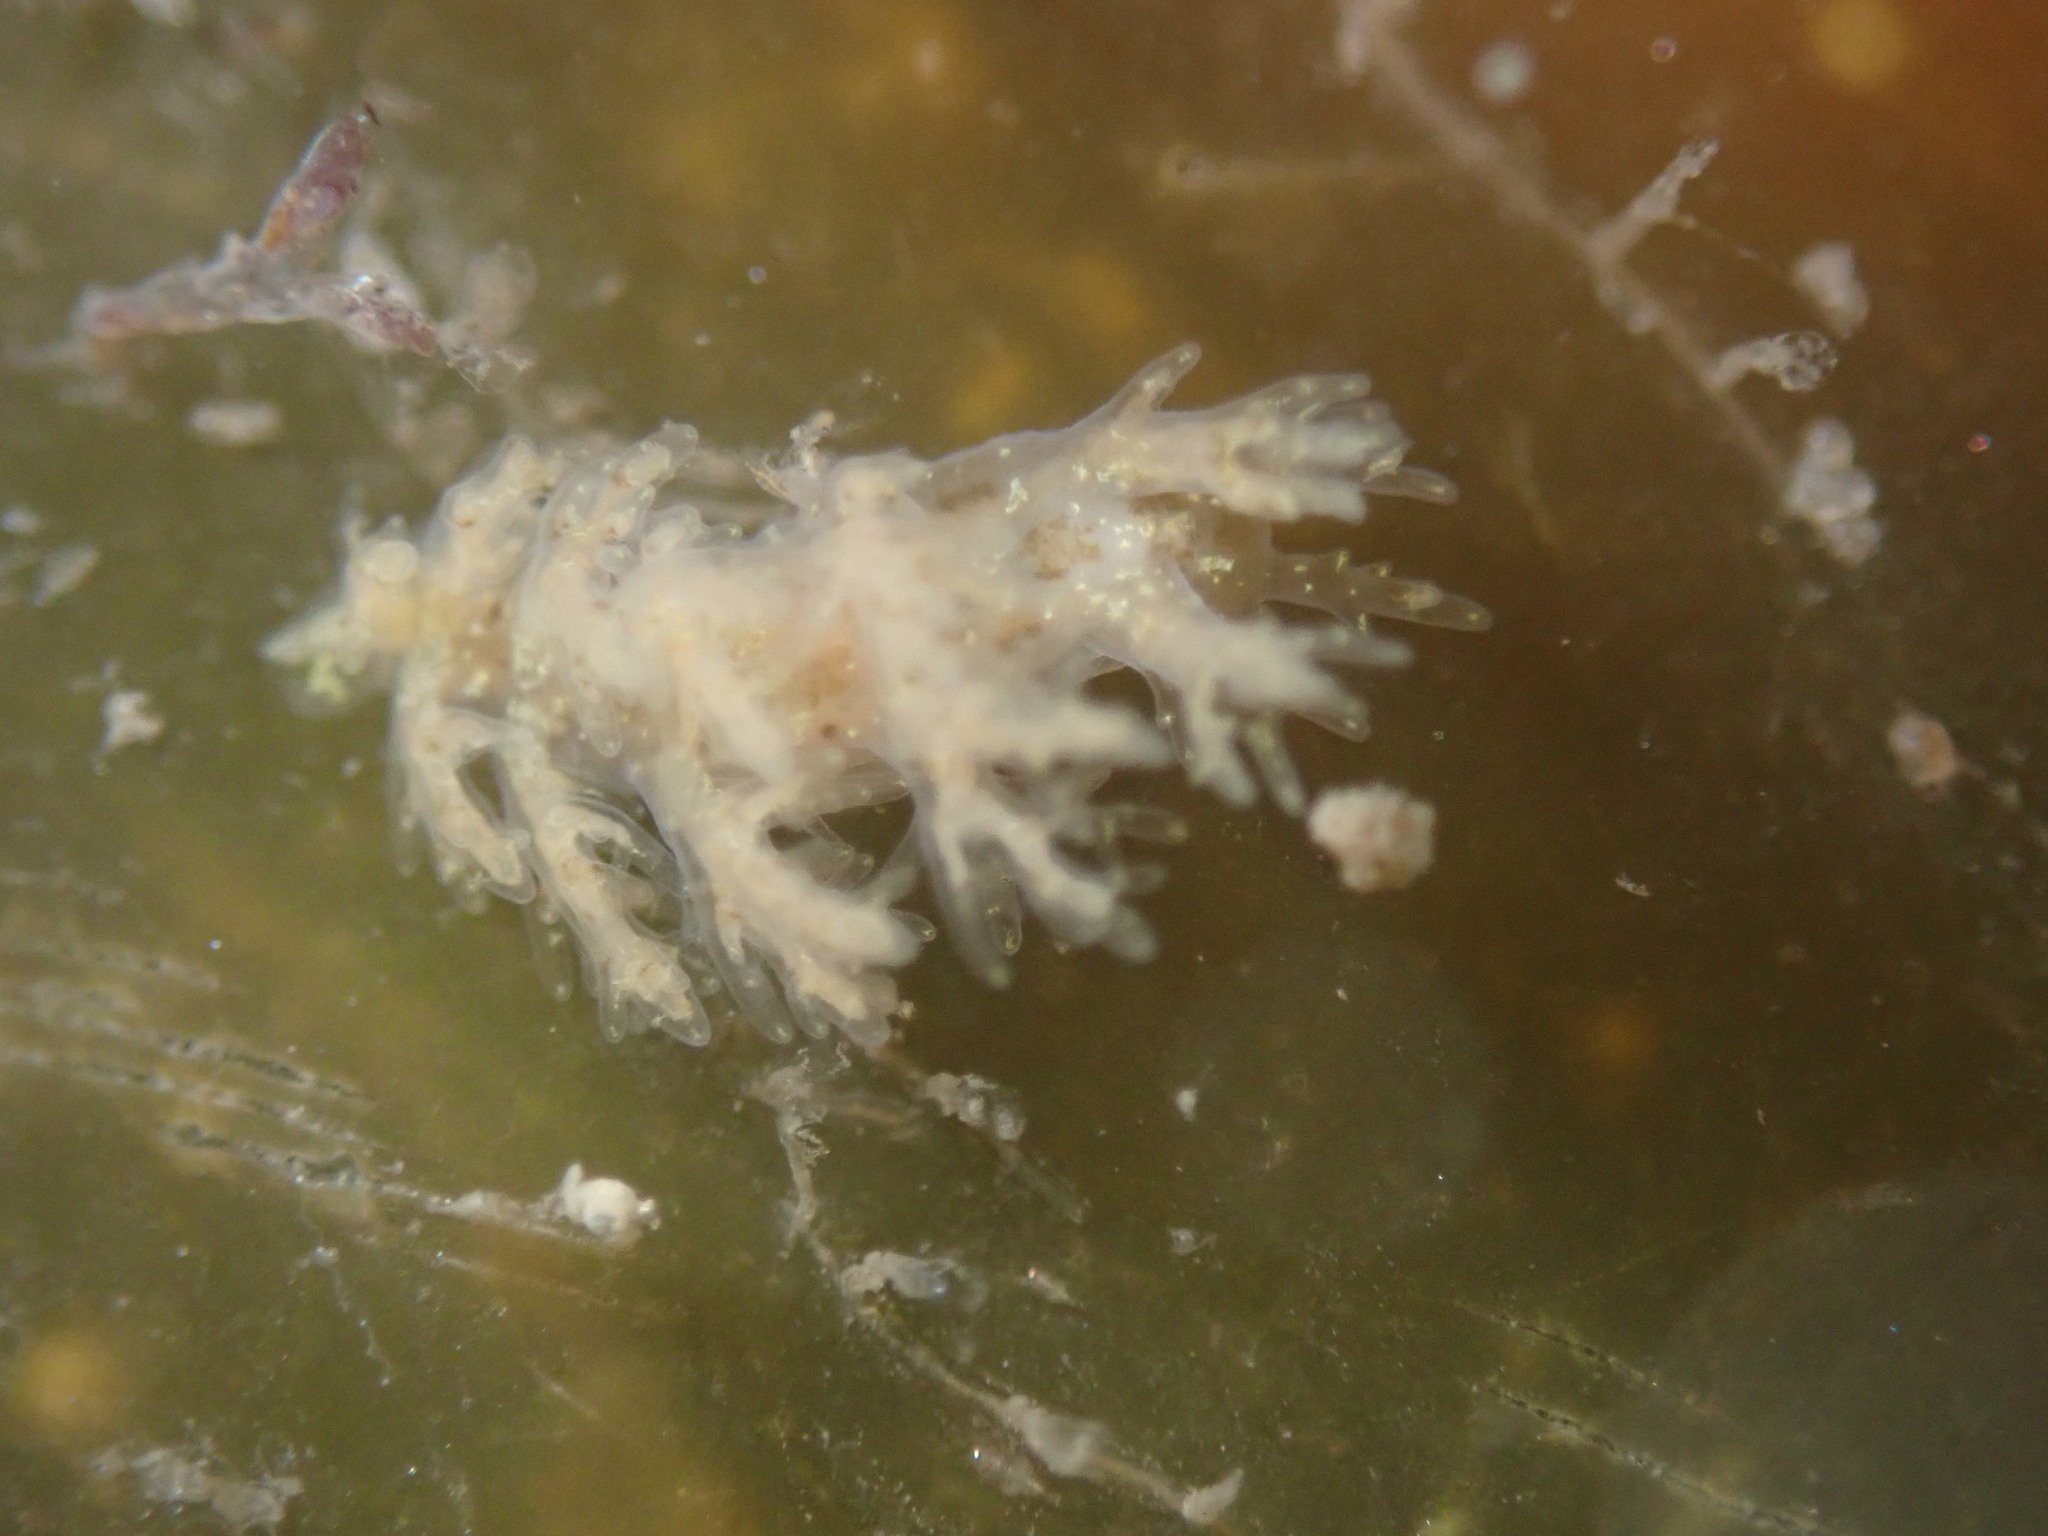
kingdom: Animalia
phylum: Mollusca
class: Gastropoda
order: Nudibranchia
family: Dendronotidae
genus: Dendronotus
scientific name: Dendronotus venustus
